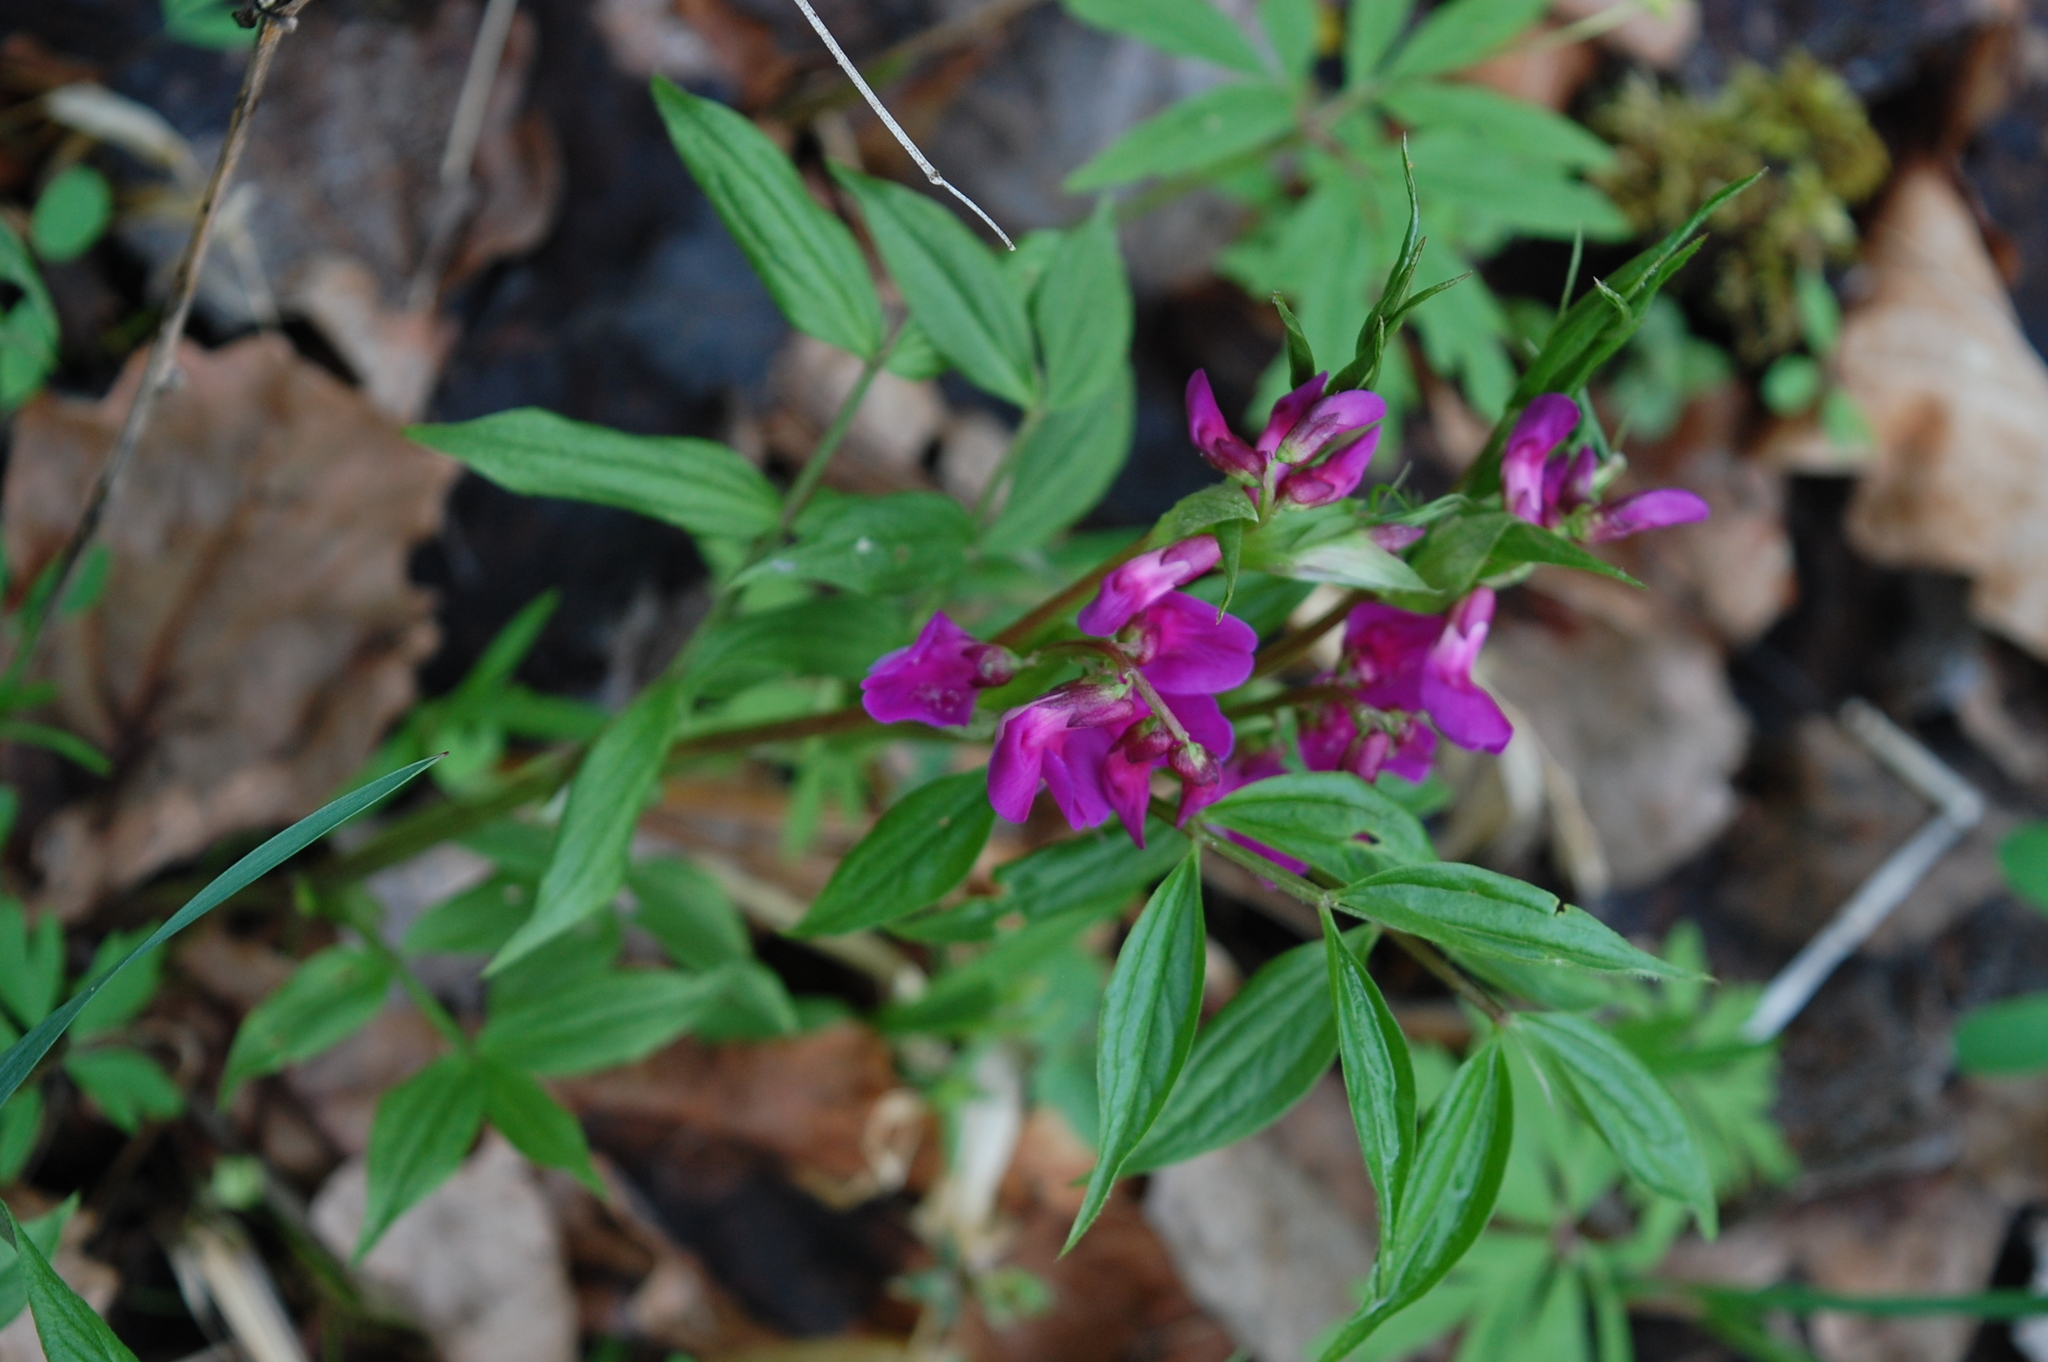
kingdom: Plantae
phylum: Tracheophyta
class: Magnoliopsida
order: Fabales
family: Fabaceae
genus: Lathyrus
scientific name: Lathyrus vernus
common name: Spring pea
